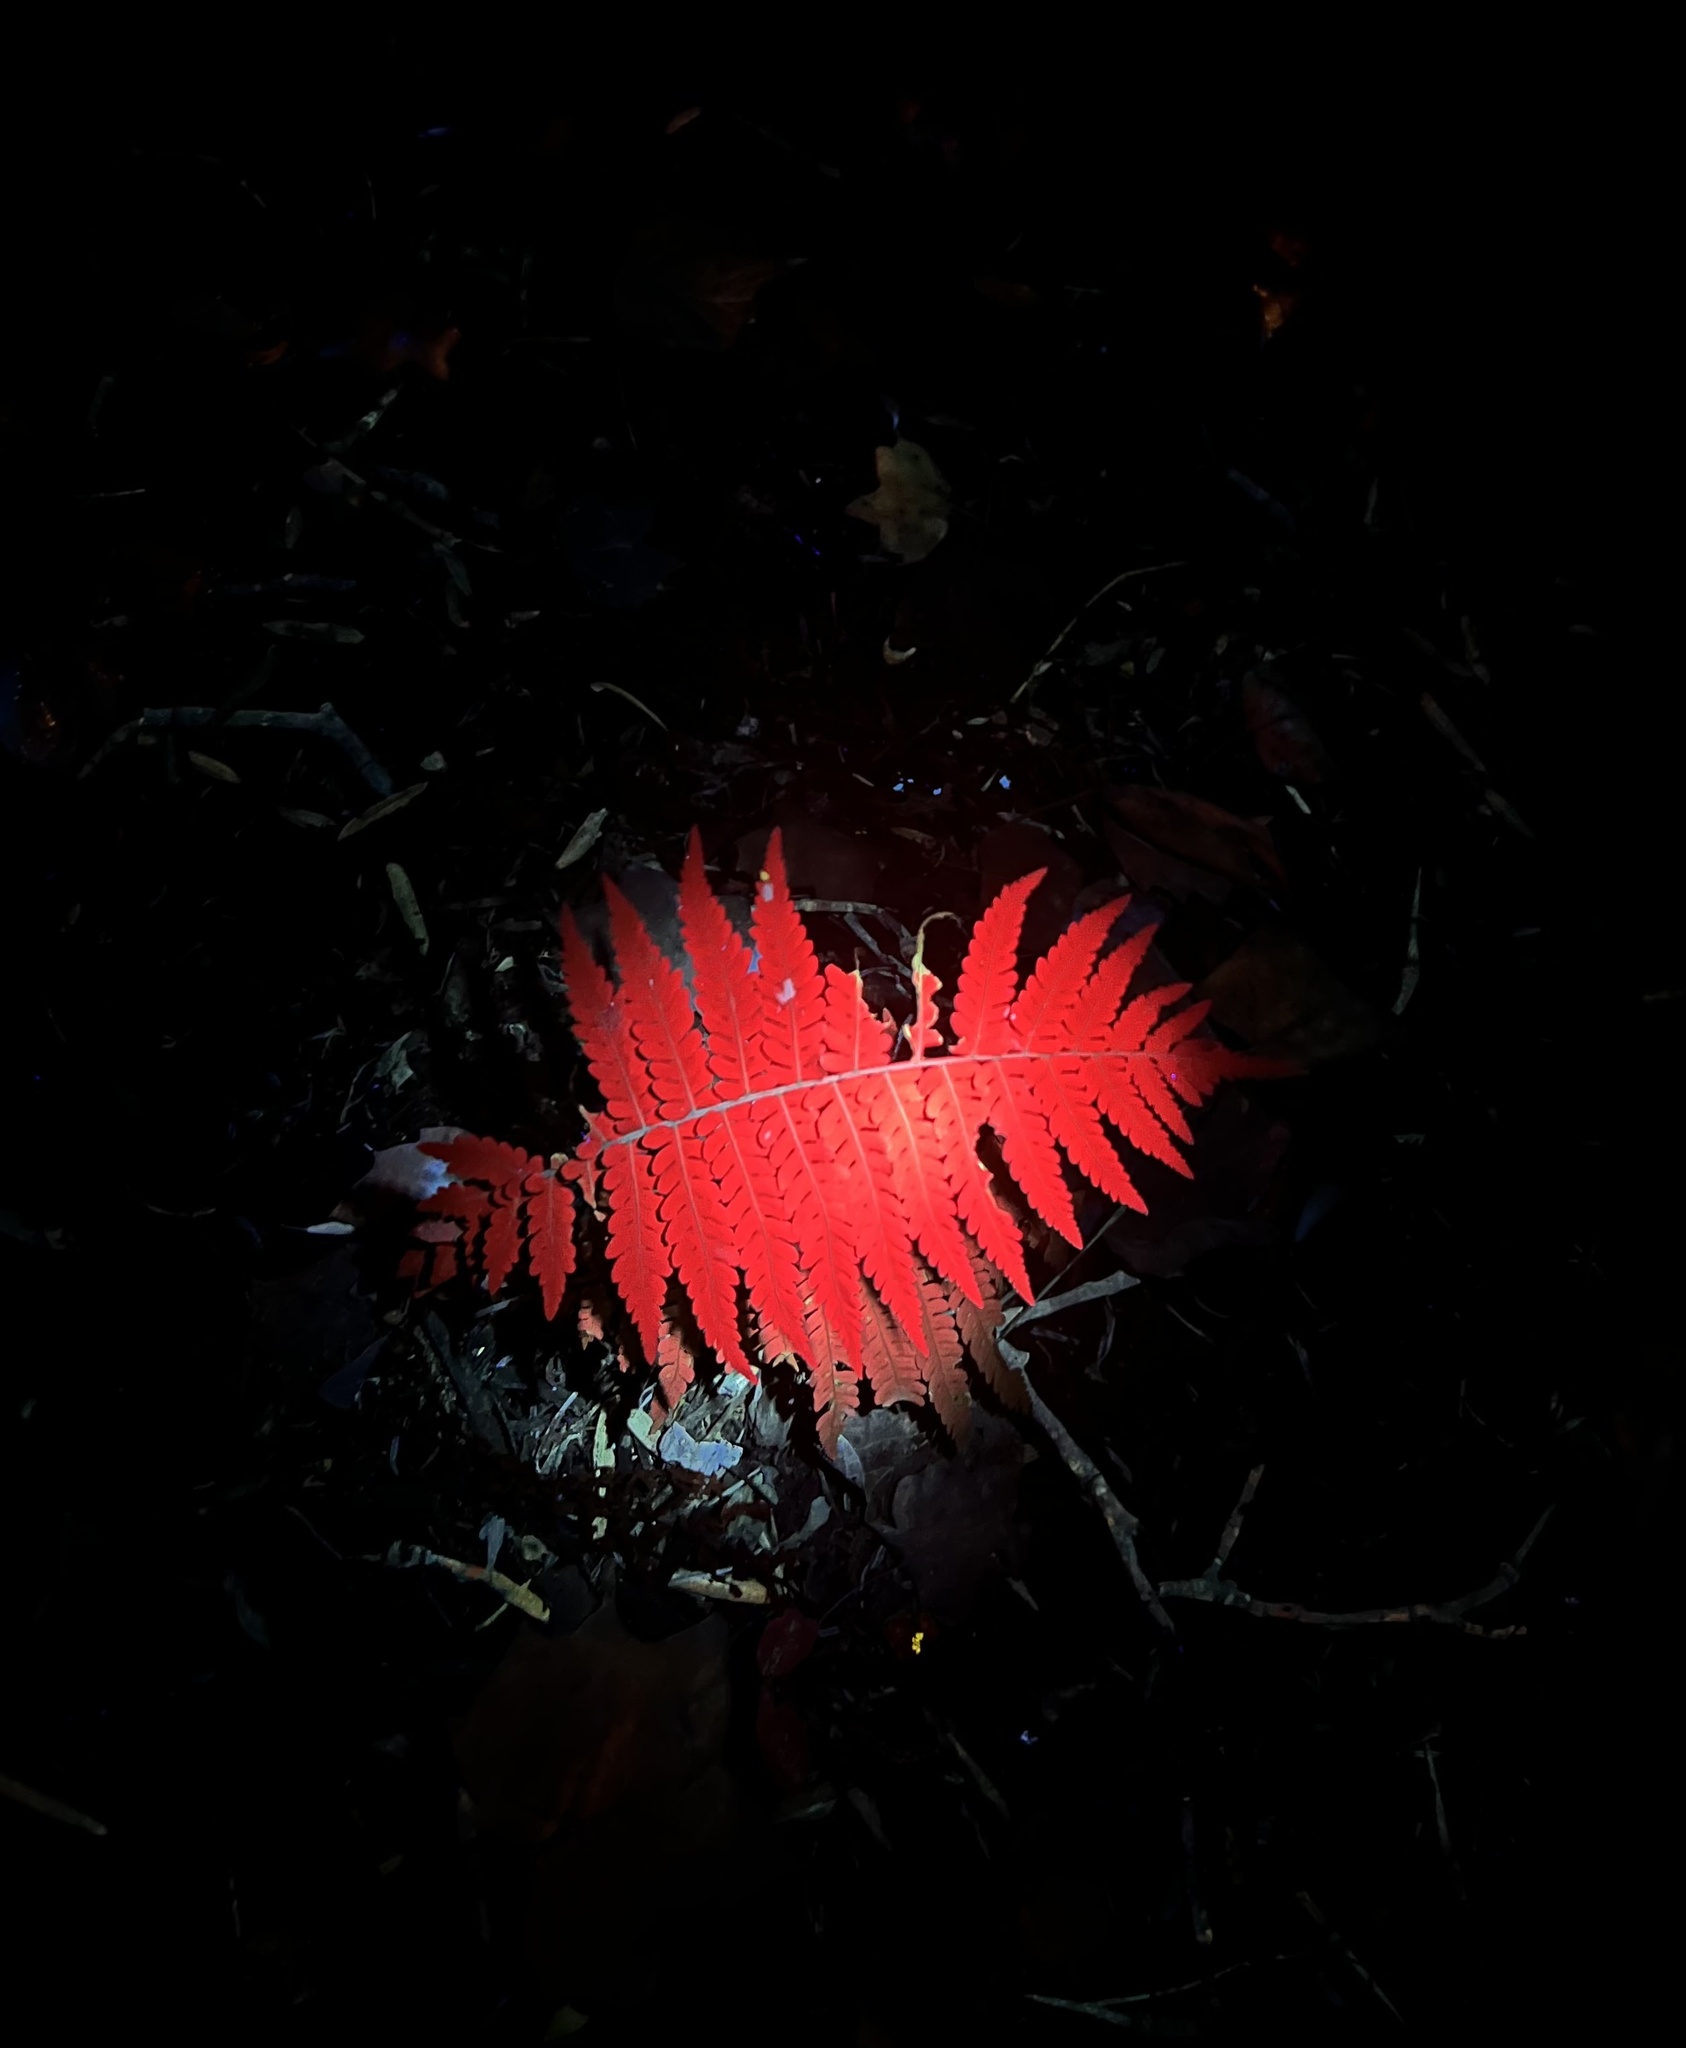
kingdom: Plantae
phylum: Tracheophyta
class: Polypodiopsida
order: Polypodiales
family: Thelypteridaceae
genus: Amauropelta
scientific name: Amauropelta noveboracensis
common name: New york fern
